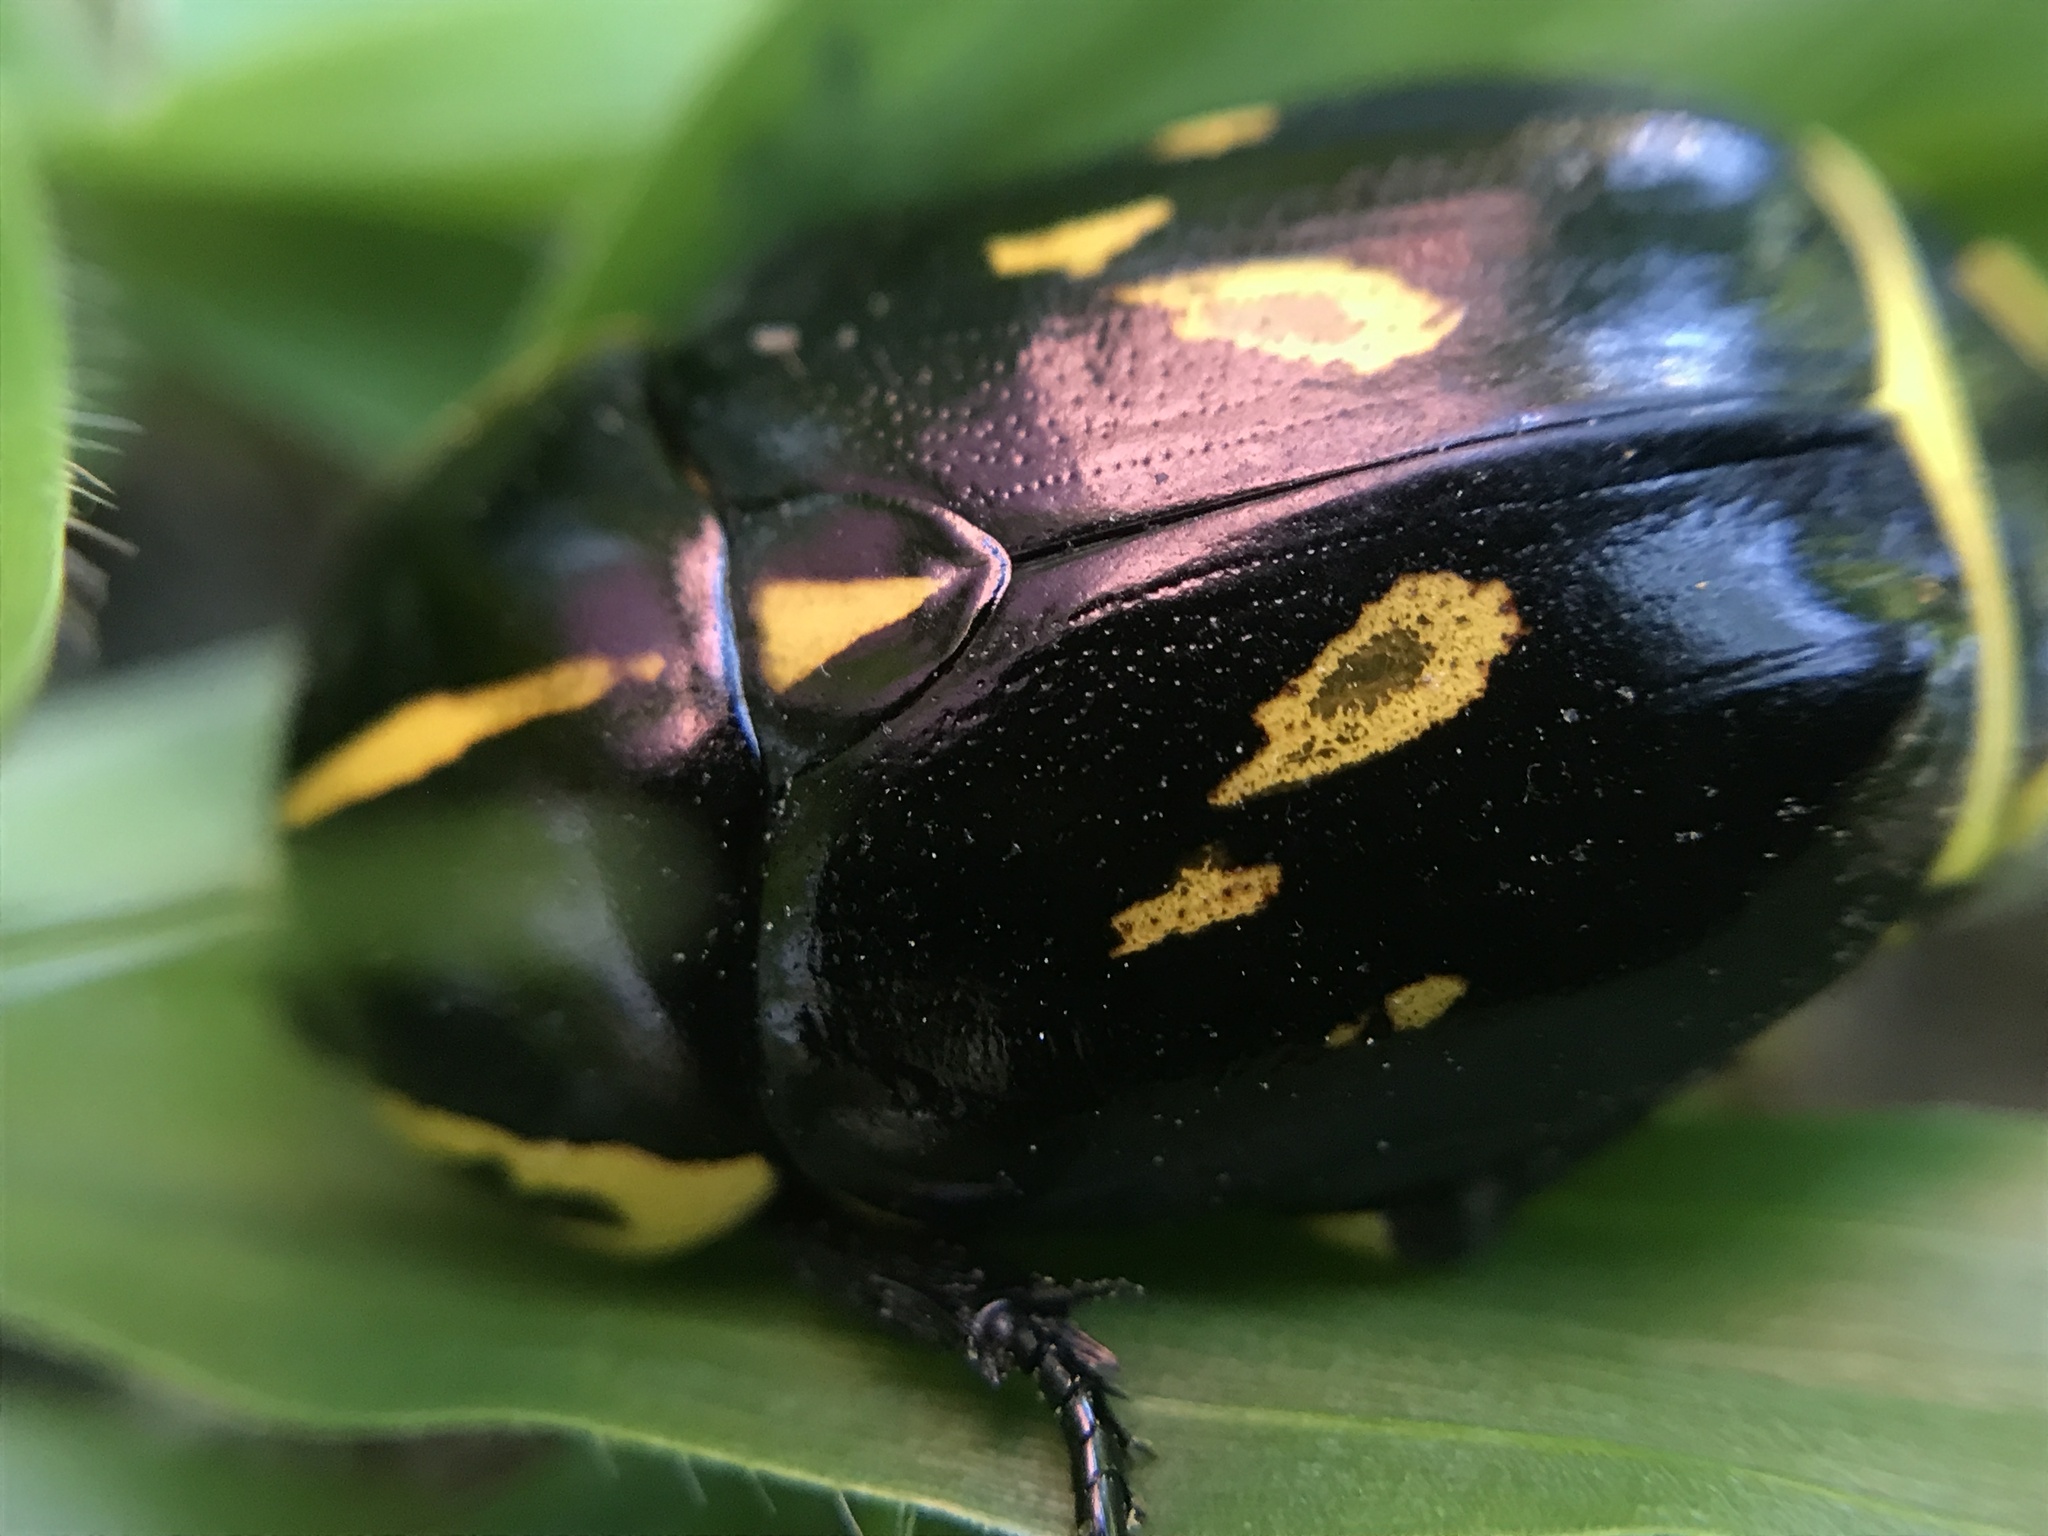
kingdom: Animalia
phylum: Arthropoda
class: Insecta
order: Coleoptera
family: Scarabaeidae
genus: Rutela
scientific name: Rutela lineola
